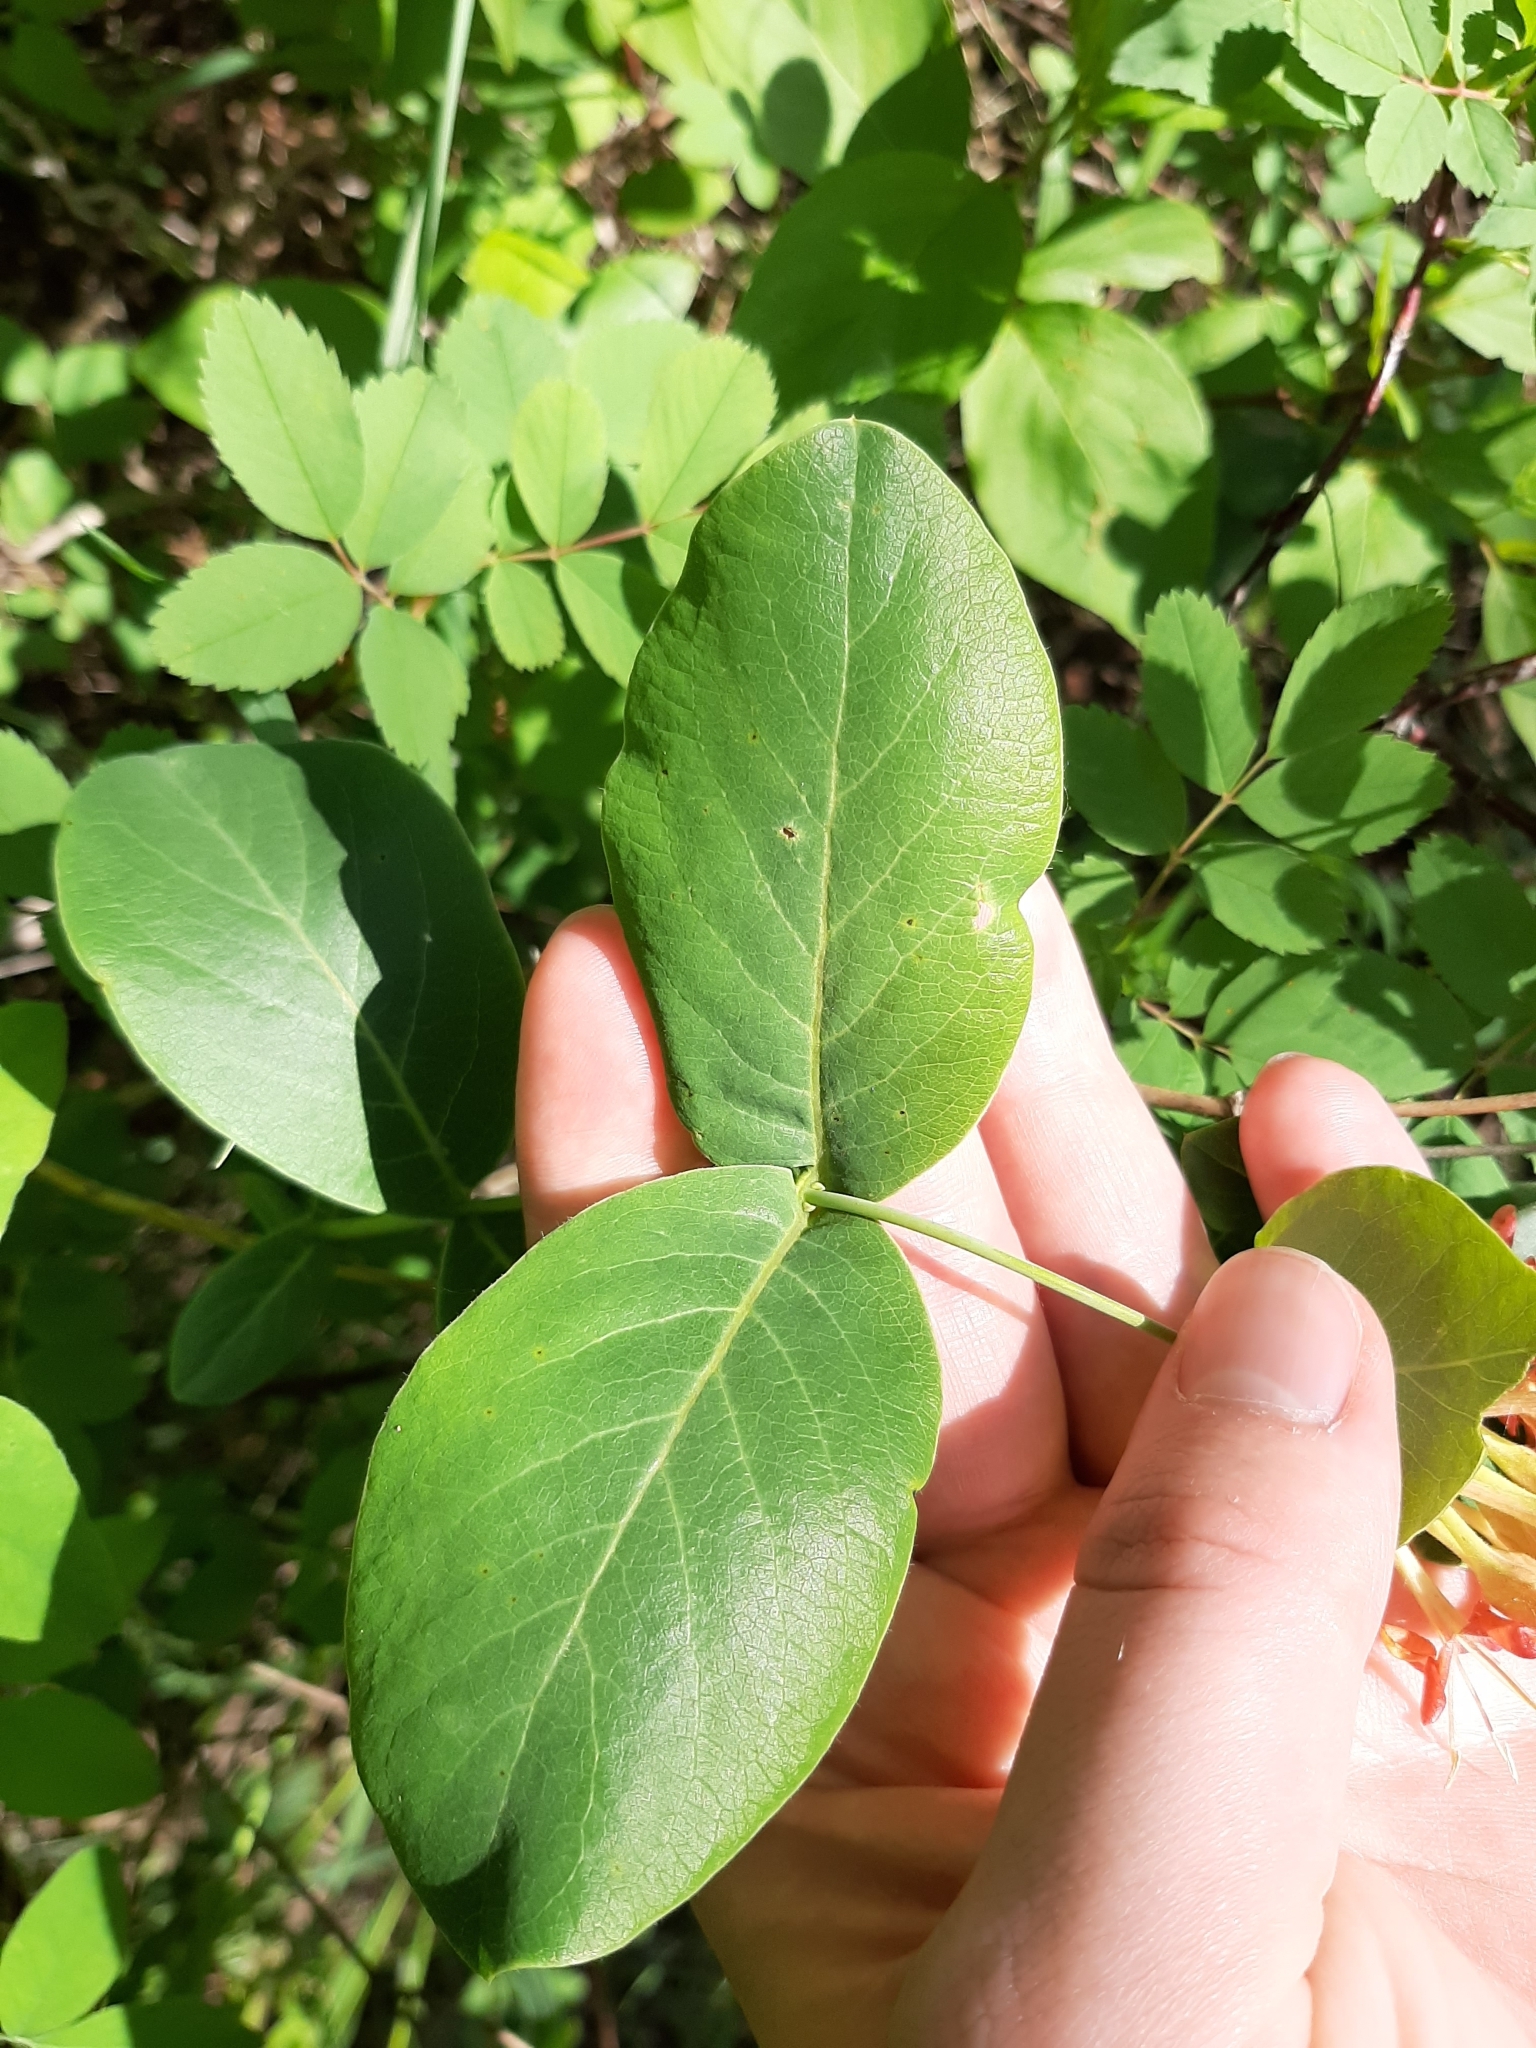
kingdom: Plantae
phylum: Tracheophyta
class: Magnoliopsida
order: Dipsacales
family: Caprifoliaceae
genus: Lonicera
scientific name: Lonicera dioica
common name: Limber honeysuckle
